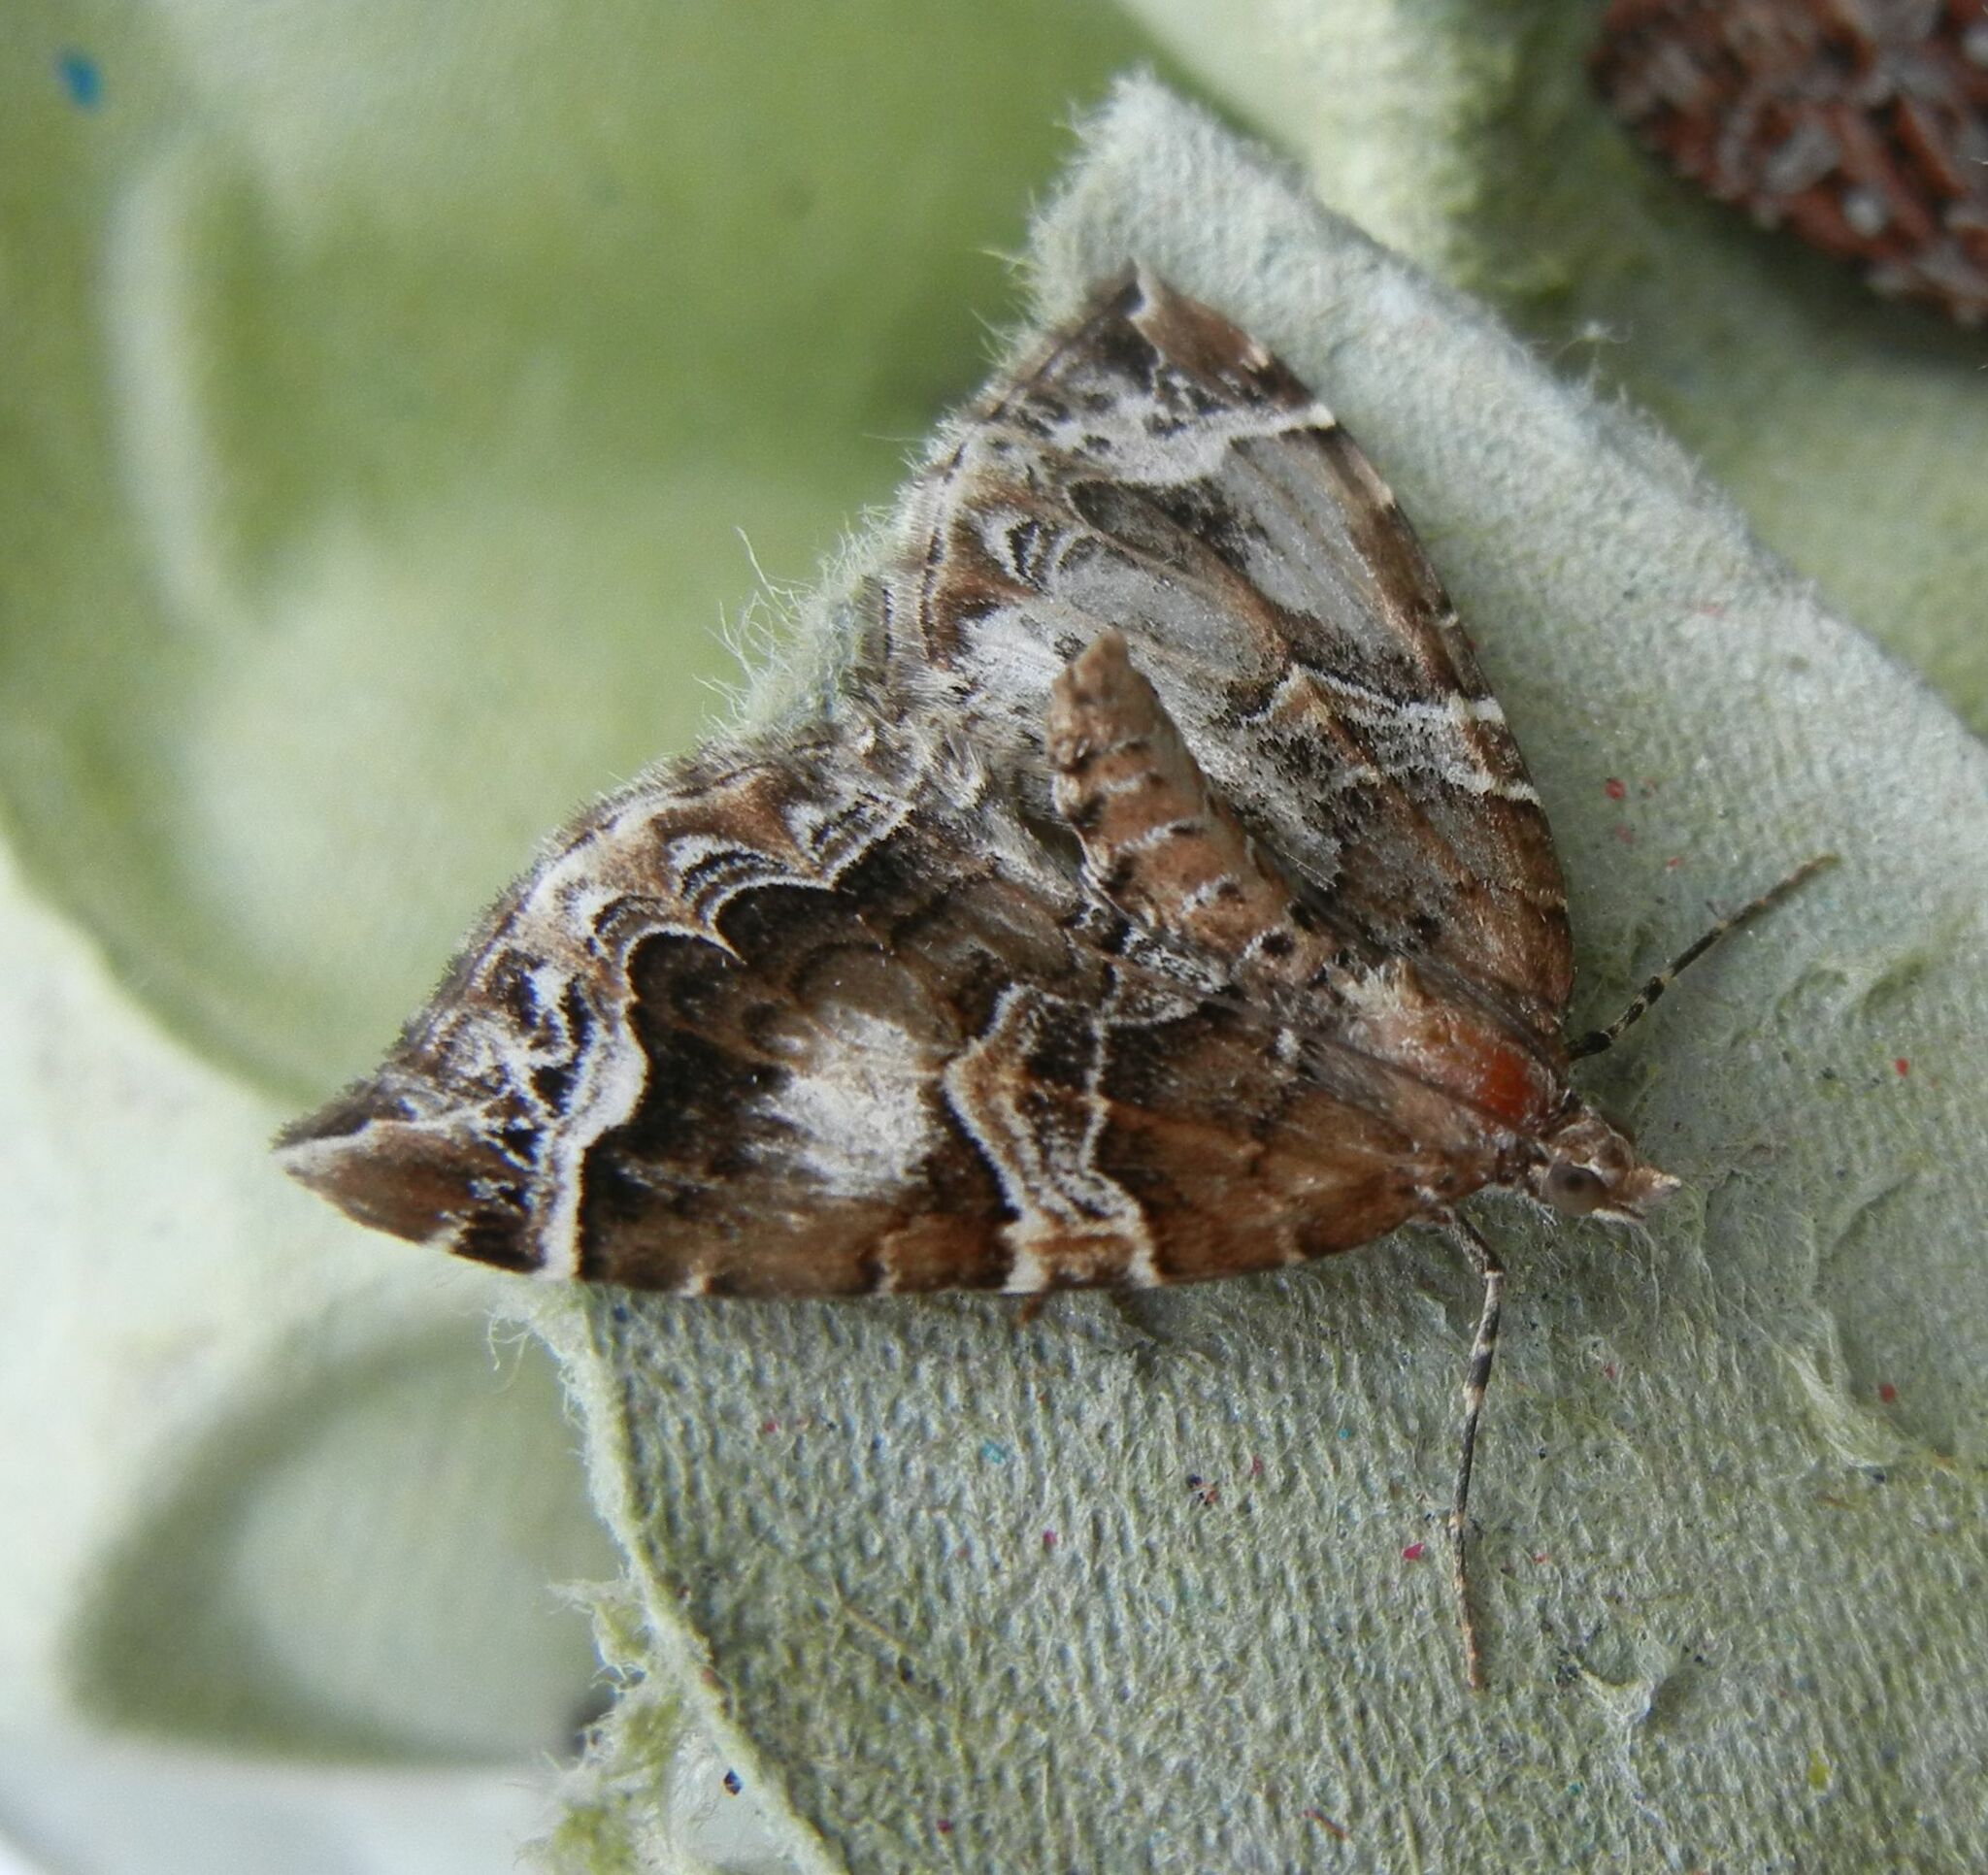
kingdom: Animalia
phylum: Arthropoda
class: Insecta
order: Lepidoptera
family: Geometridae
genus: Eulithis
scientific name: Eulithis prunata
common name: Phoenix
